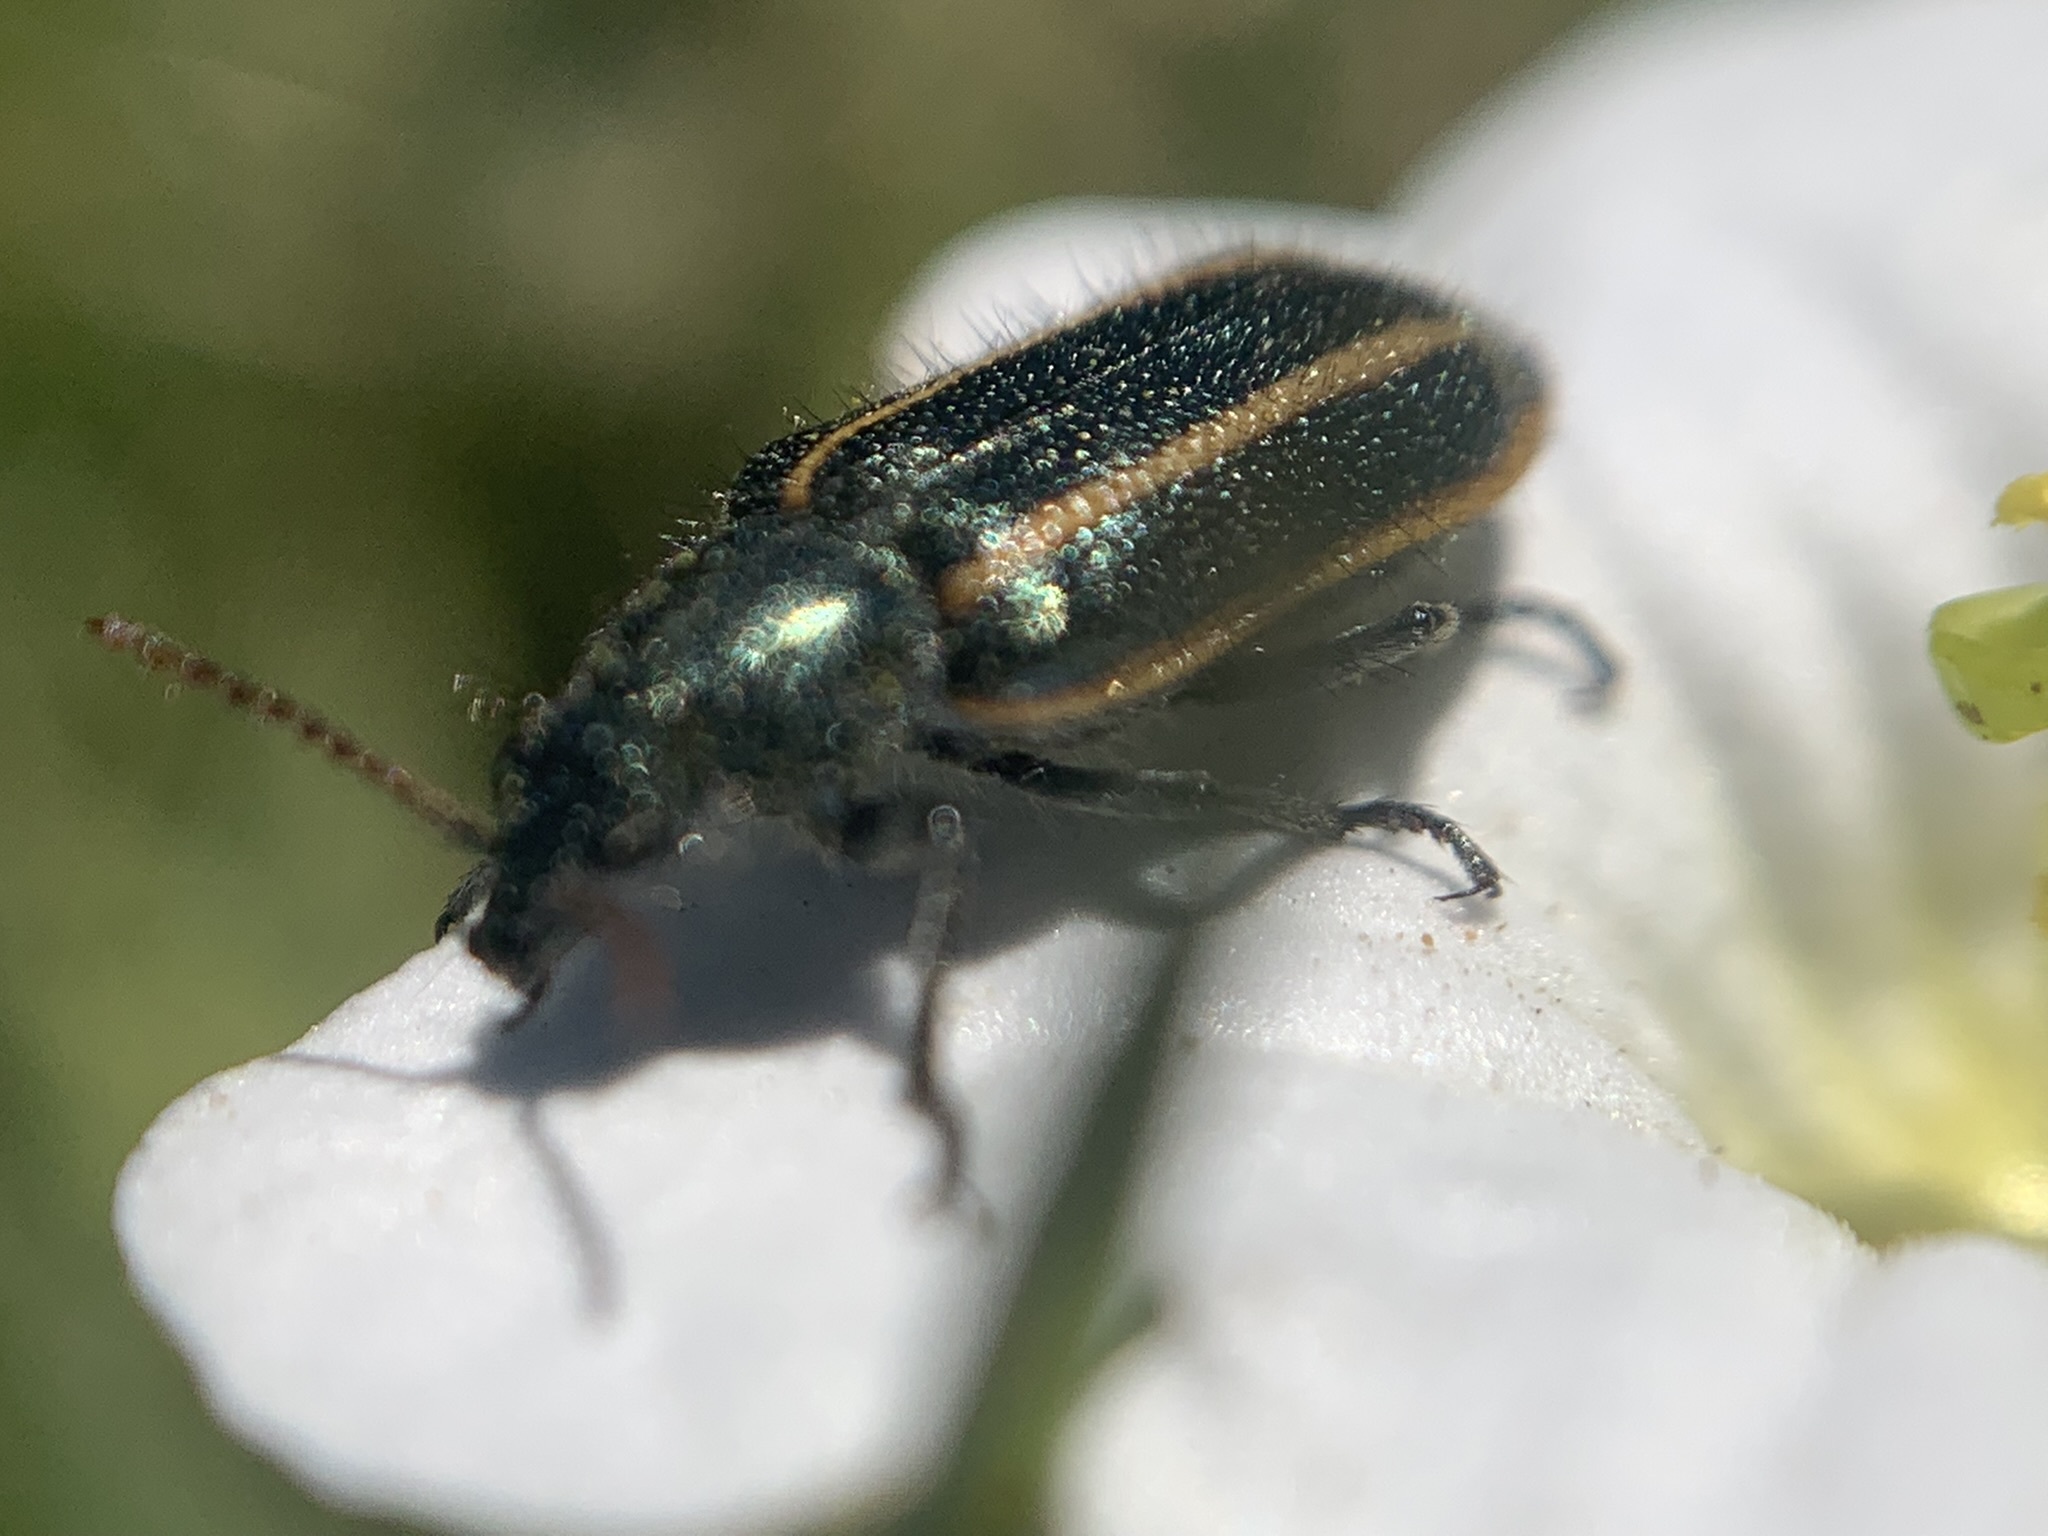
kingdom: Animalia
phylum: Arthropoda
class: Insecta
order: Coleoptera
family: Melyridae
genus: Astylus
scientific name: Astylus
